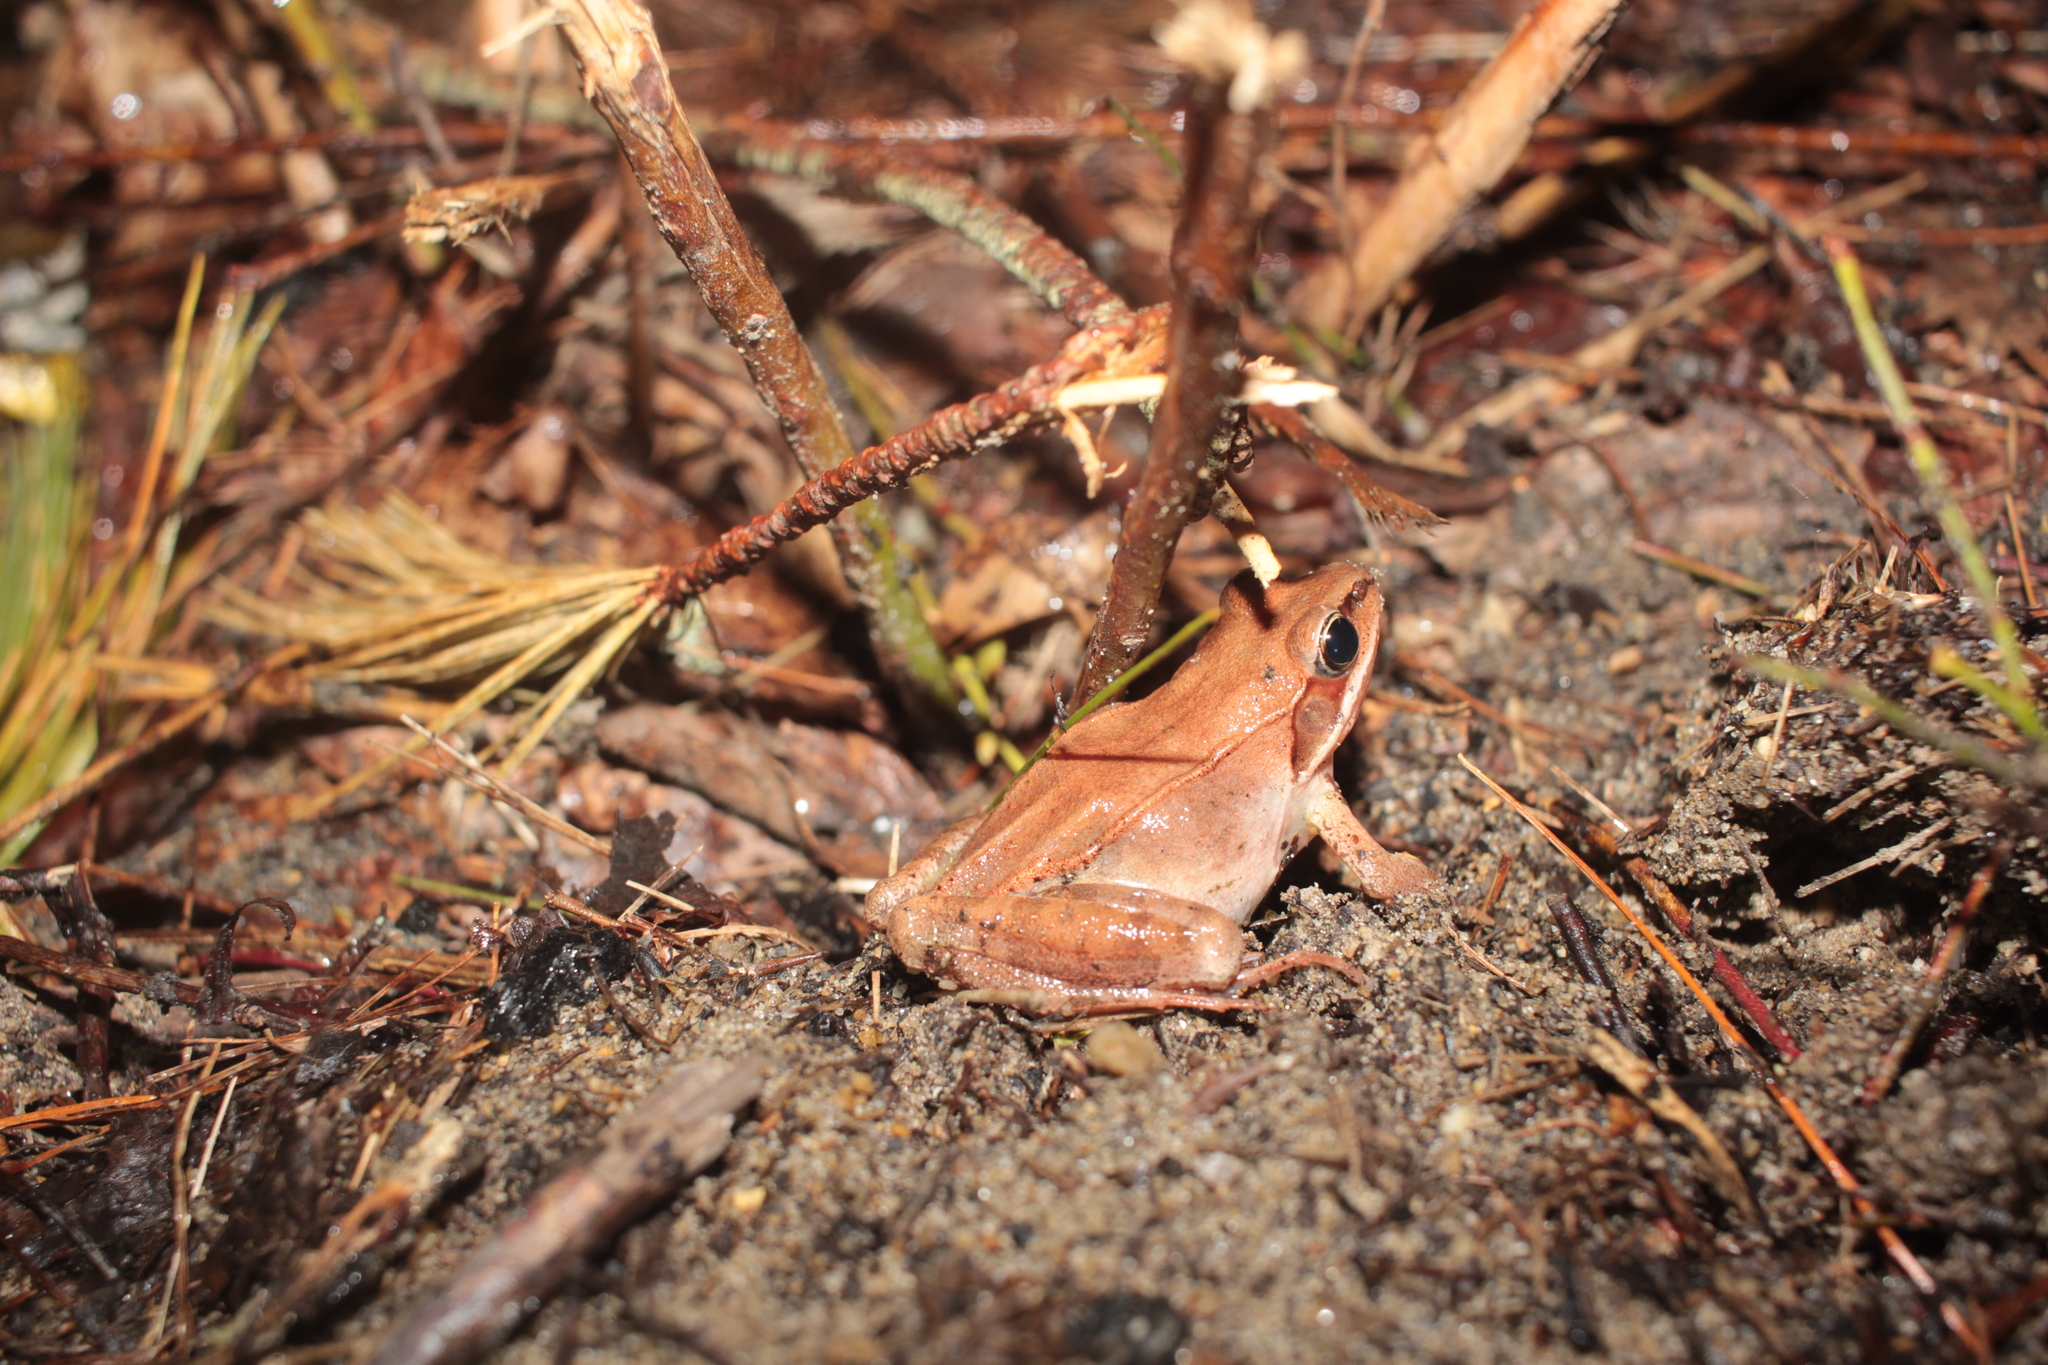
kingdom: Animalia
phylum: Chordata
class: Amphibia
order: Anura
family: Ranidae
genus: Lithobates
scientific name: Lithobates sylvaticus
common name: Wood frog
